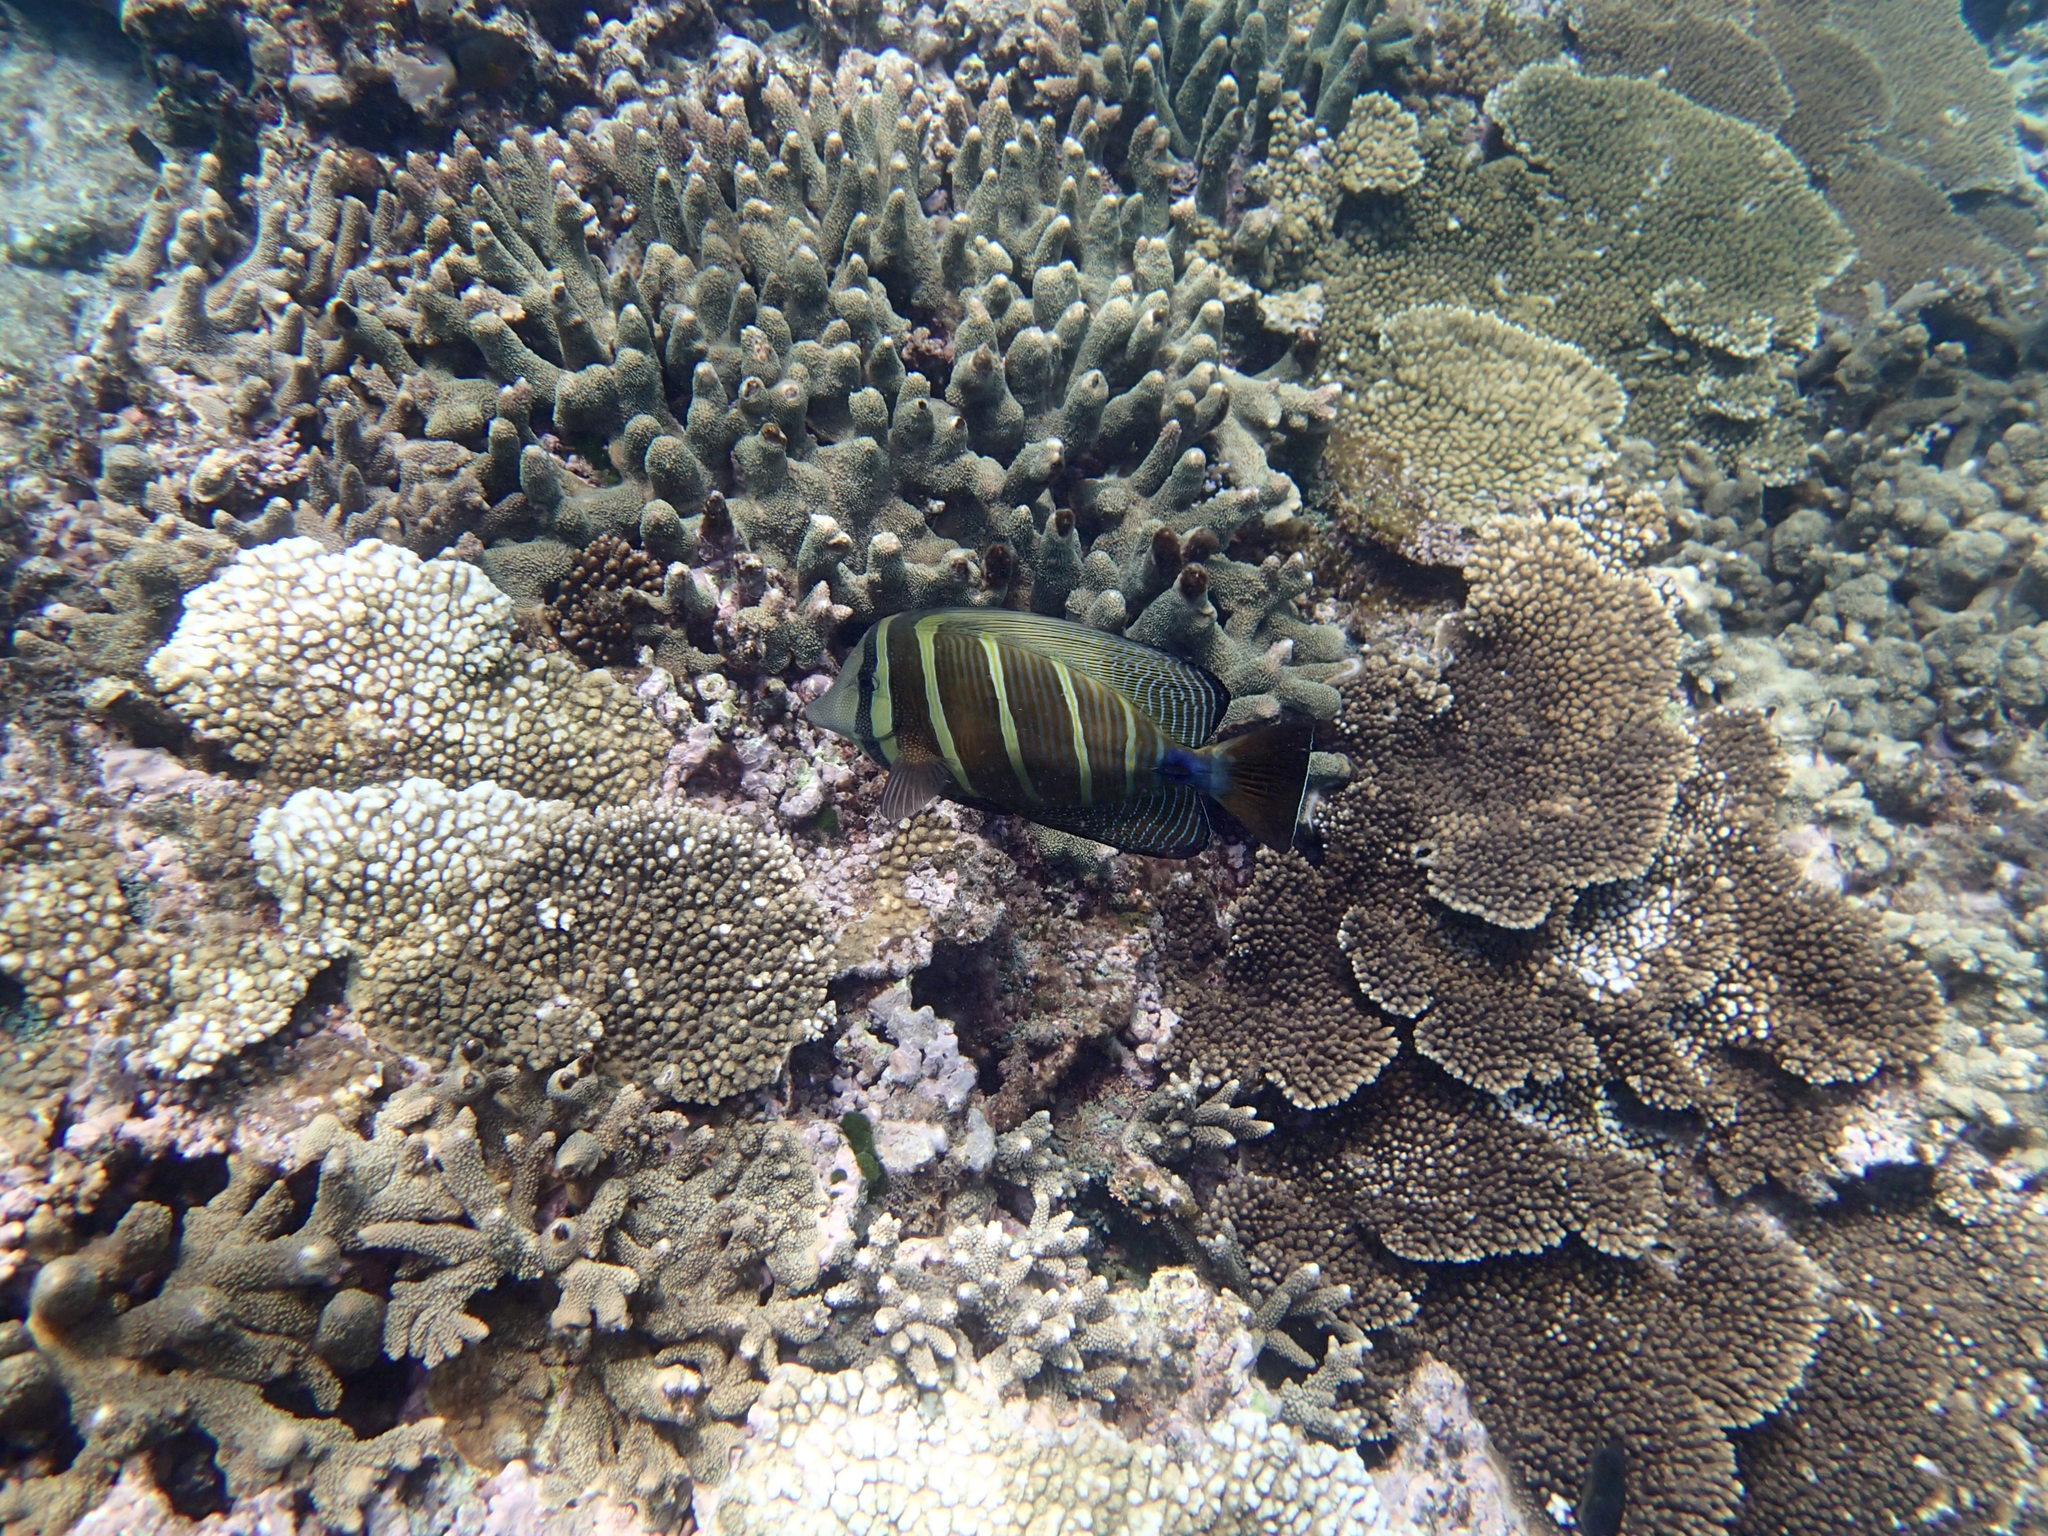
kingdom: Animalia
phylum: Chordata
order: Perciformes
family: Acanthuridae
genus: Zebrasoma
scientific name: Zebrasoma veliferum
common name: Sailfin surgeonfish
